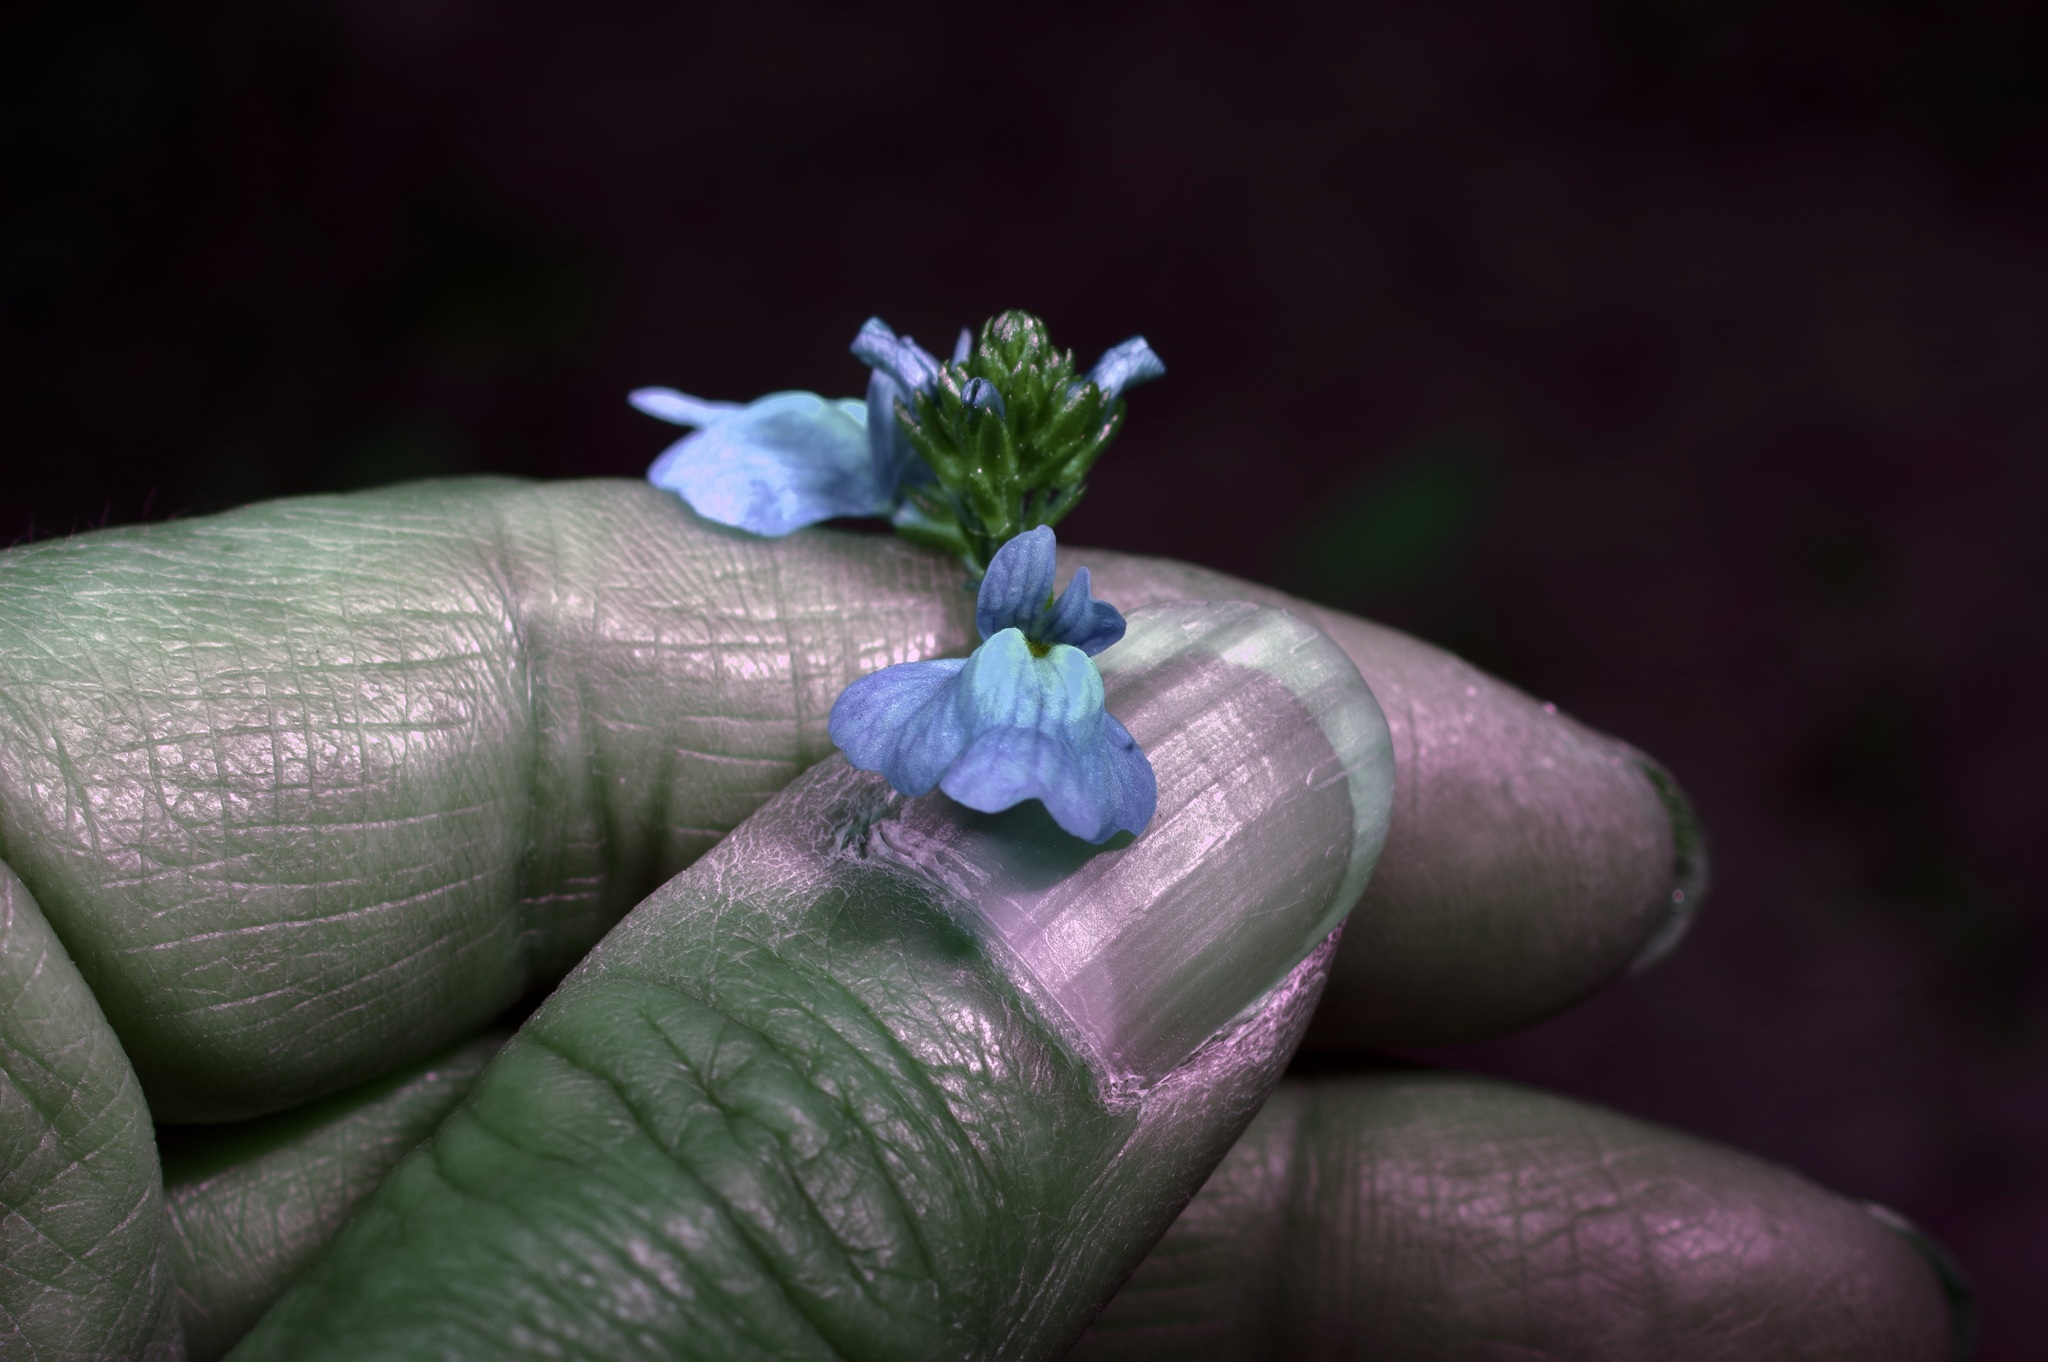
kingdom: Plantae
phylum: Tracheophyta
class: Magnoliopsida
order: Lamiales
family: Plantaginaceae
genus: Nuttallanthus
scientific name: Nuttallanthus texanus
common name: Texas toadflax
